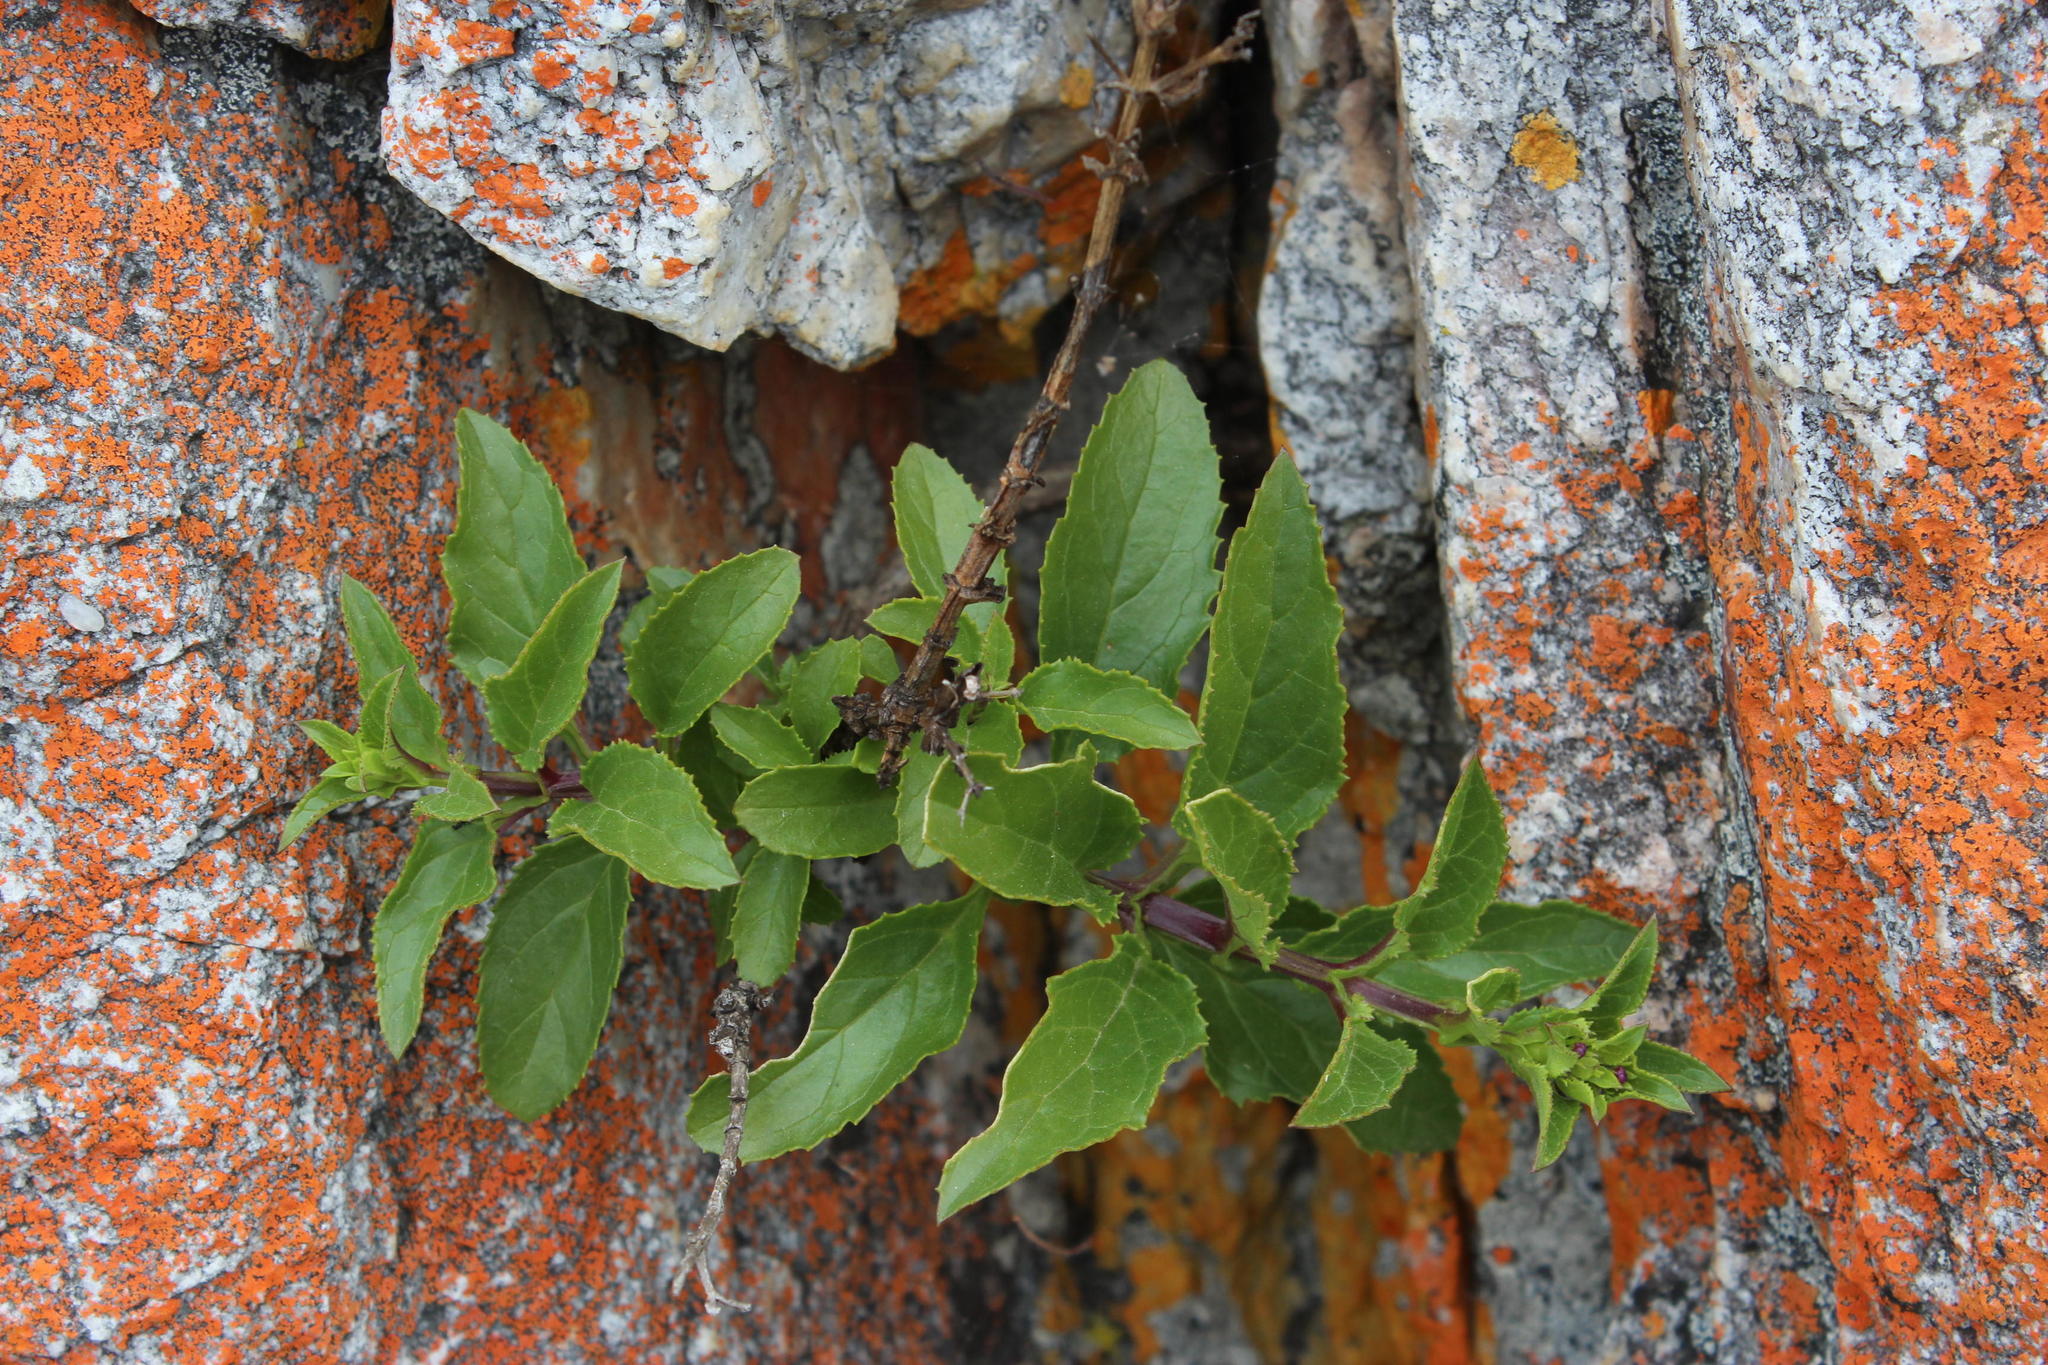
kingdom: Plantae
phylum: Tracheophyta
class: Magnoliopsida
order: Lamiales
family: Scrophulariaceae
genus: Teedia
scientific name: Teedia lucida
